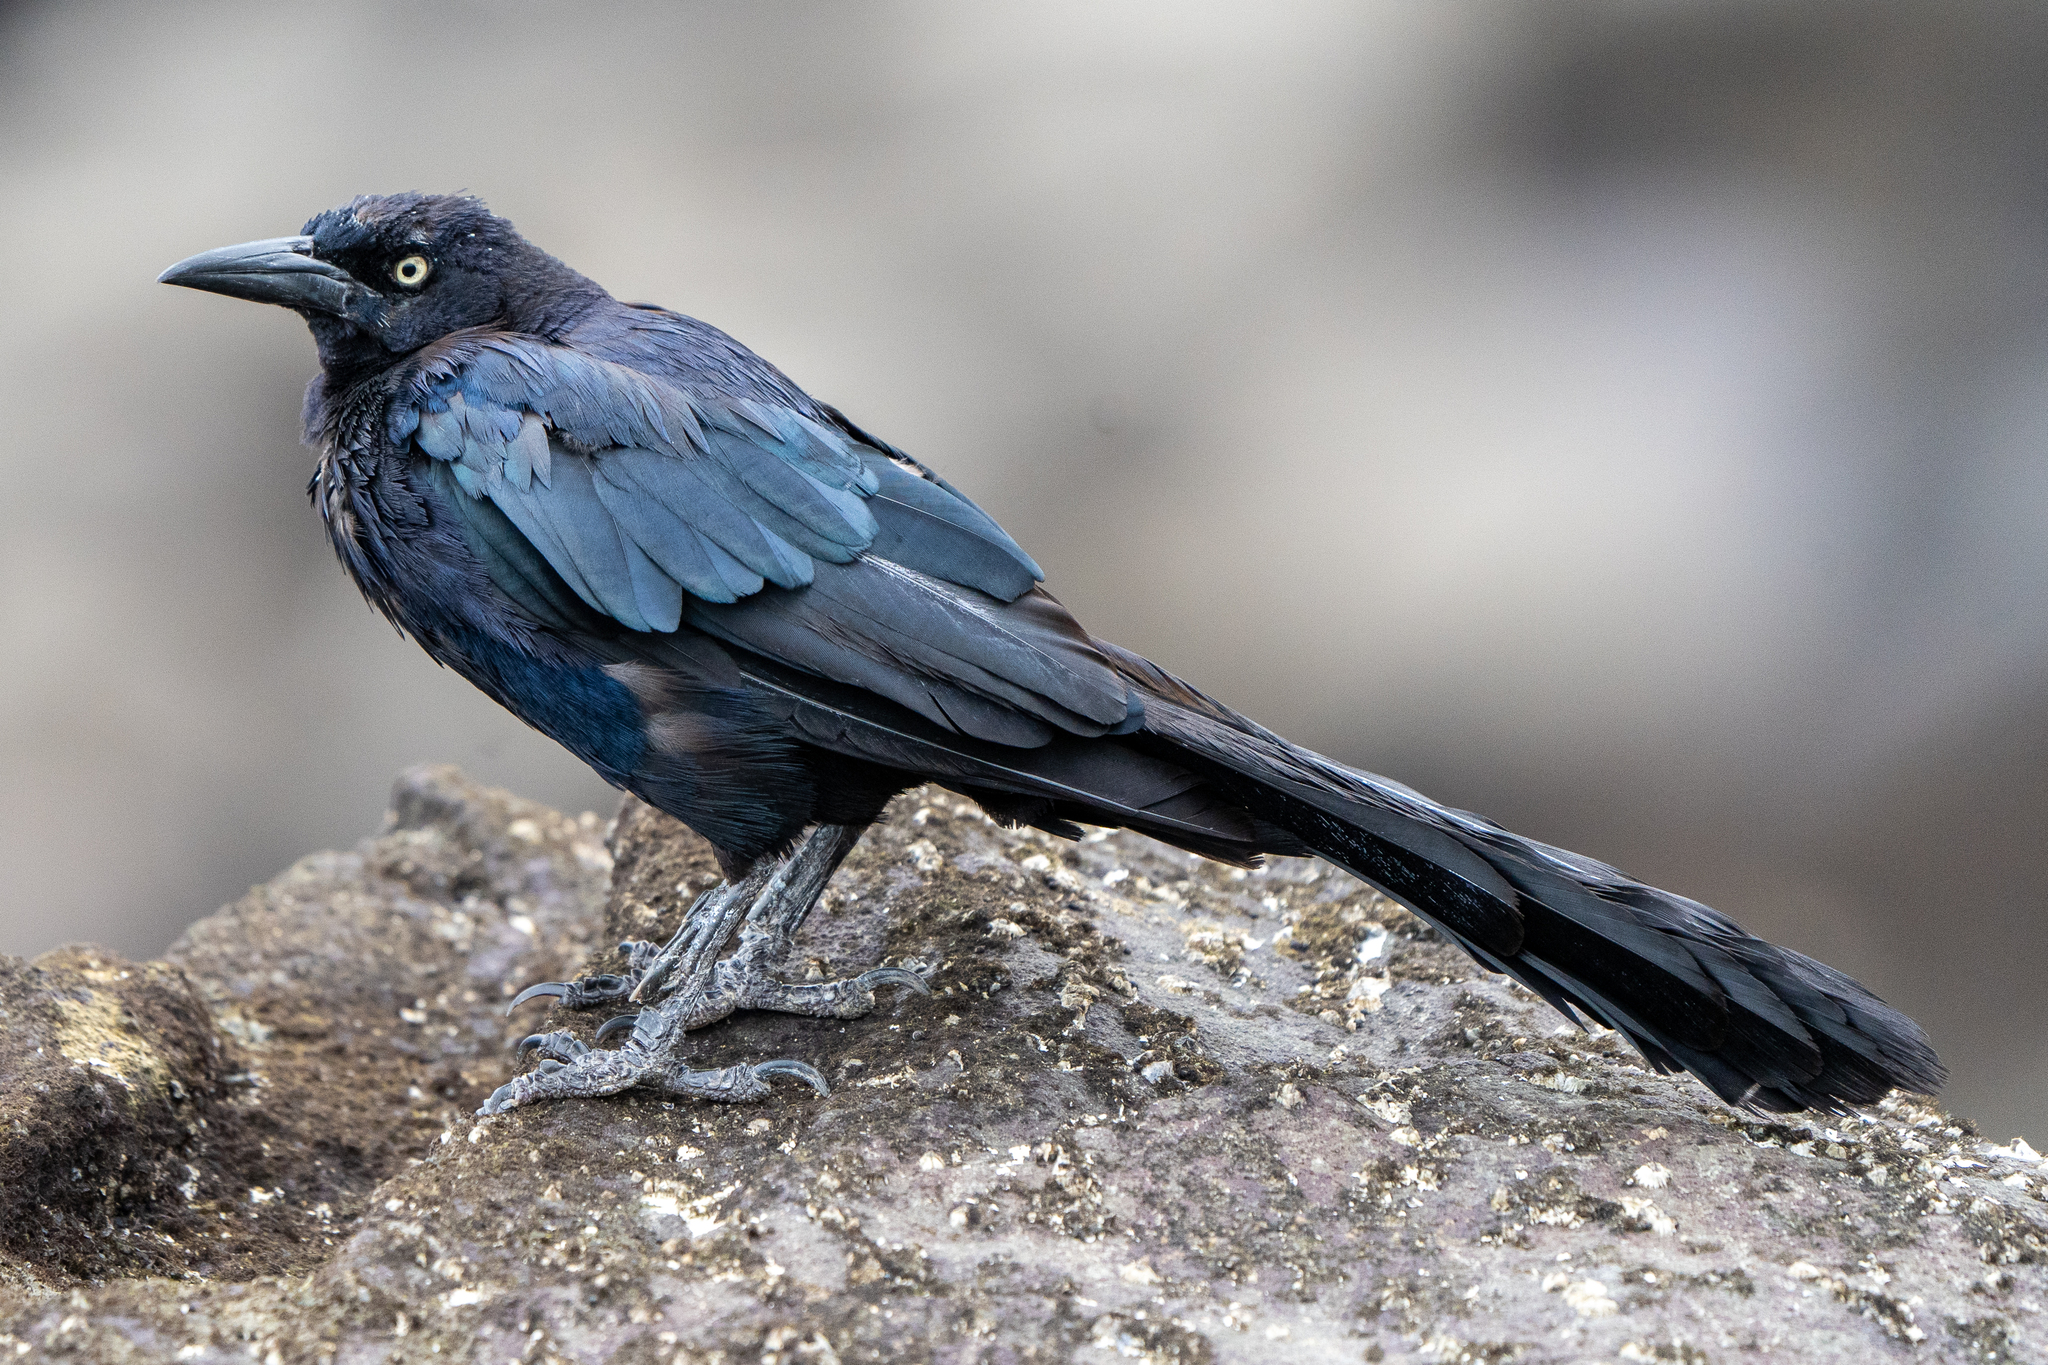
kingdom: Animalia
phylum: Chordata
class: Aves
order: Passeriformes
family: Icteridae
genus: Quiscalus
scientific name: Quiscalus mexicanus
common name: Great-tailed grackle
